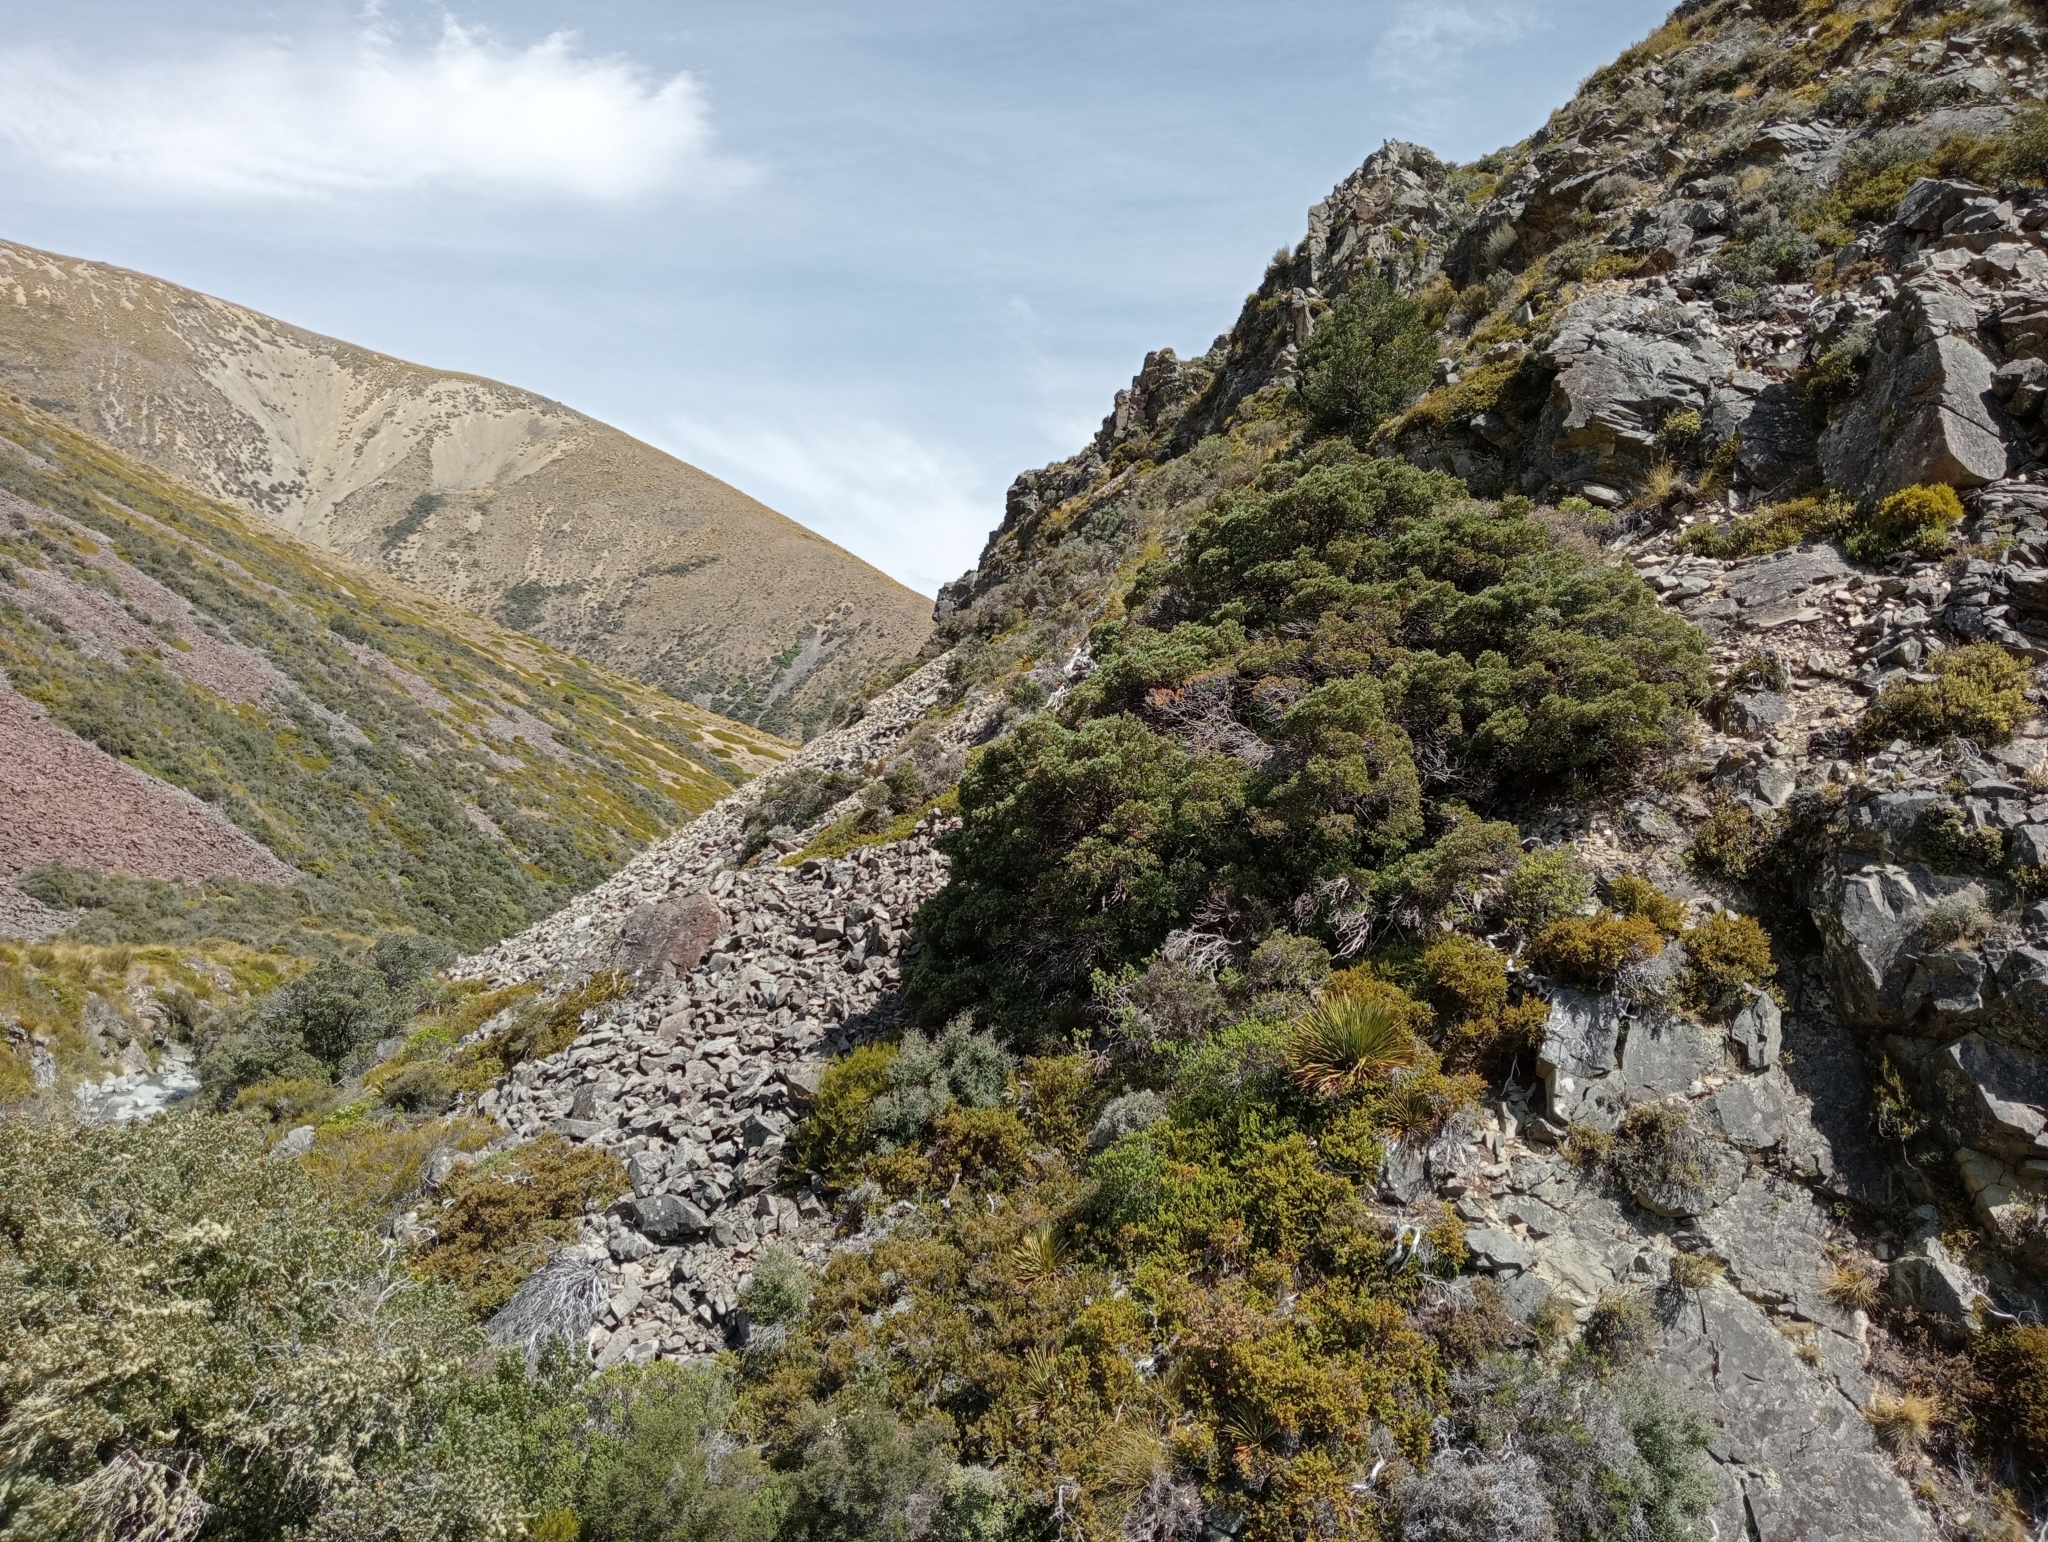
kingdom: Plantae
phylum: Tracheophyta
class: Pinopsida
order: Pinales
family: Phyllocladaceae
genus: Phyllocladus
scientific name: Phyllocladus trichomanoides
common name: Celery pine
